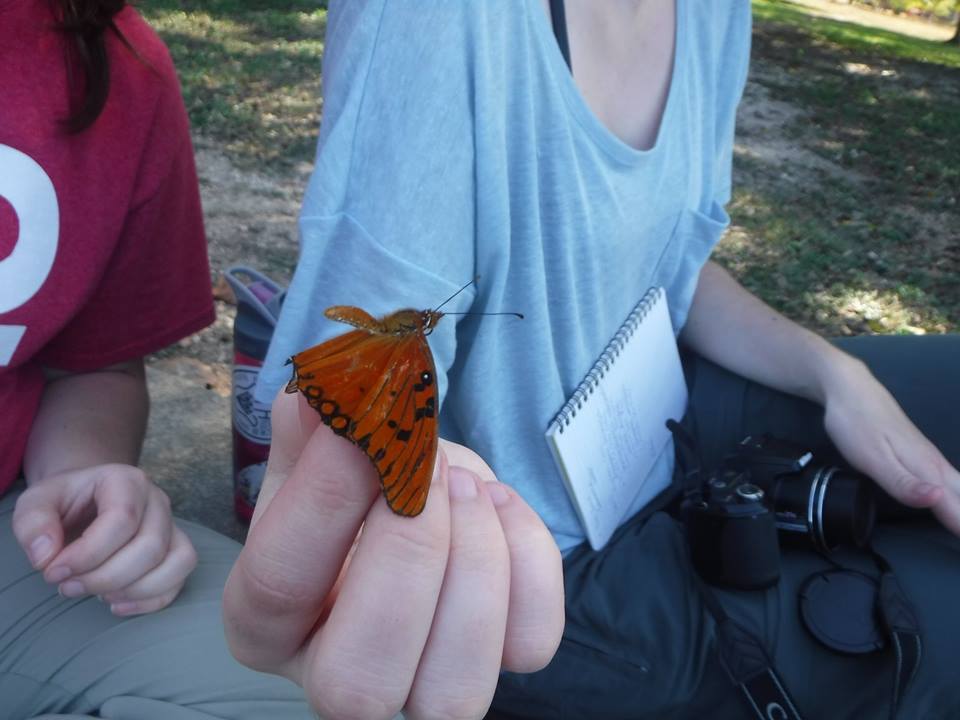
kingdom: Animalia
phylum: Arthropoda
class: Insecta
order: Lepidoptera
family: Nymphalidae
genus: Dione
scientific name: Dione vanillae
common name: Gulf fritillary
